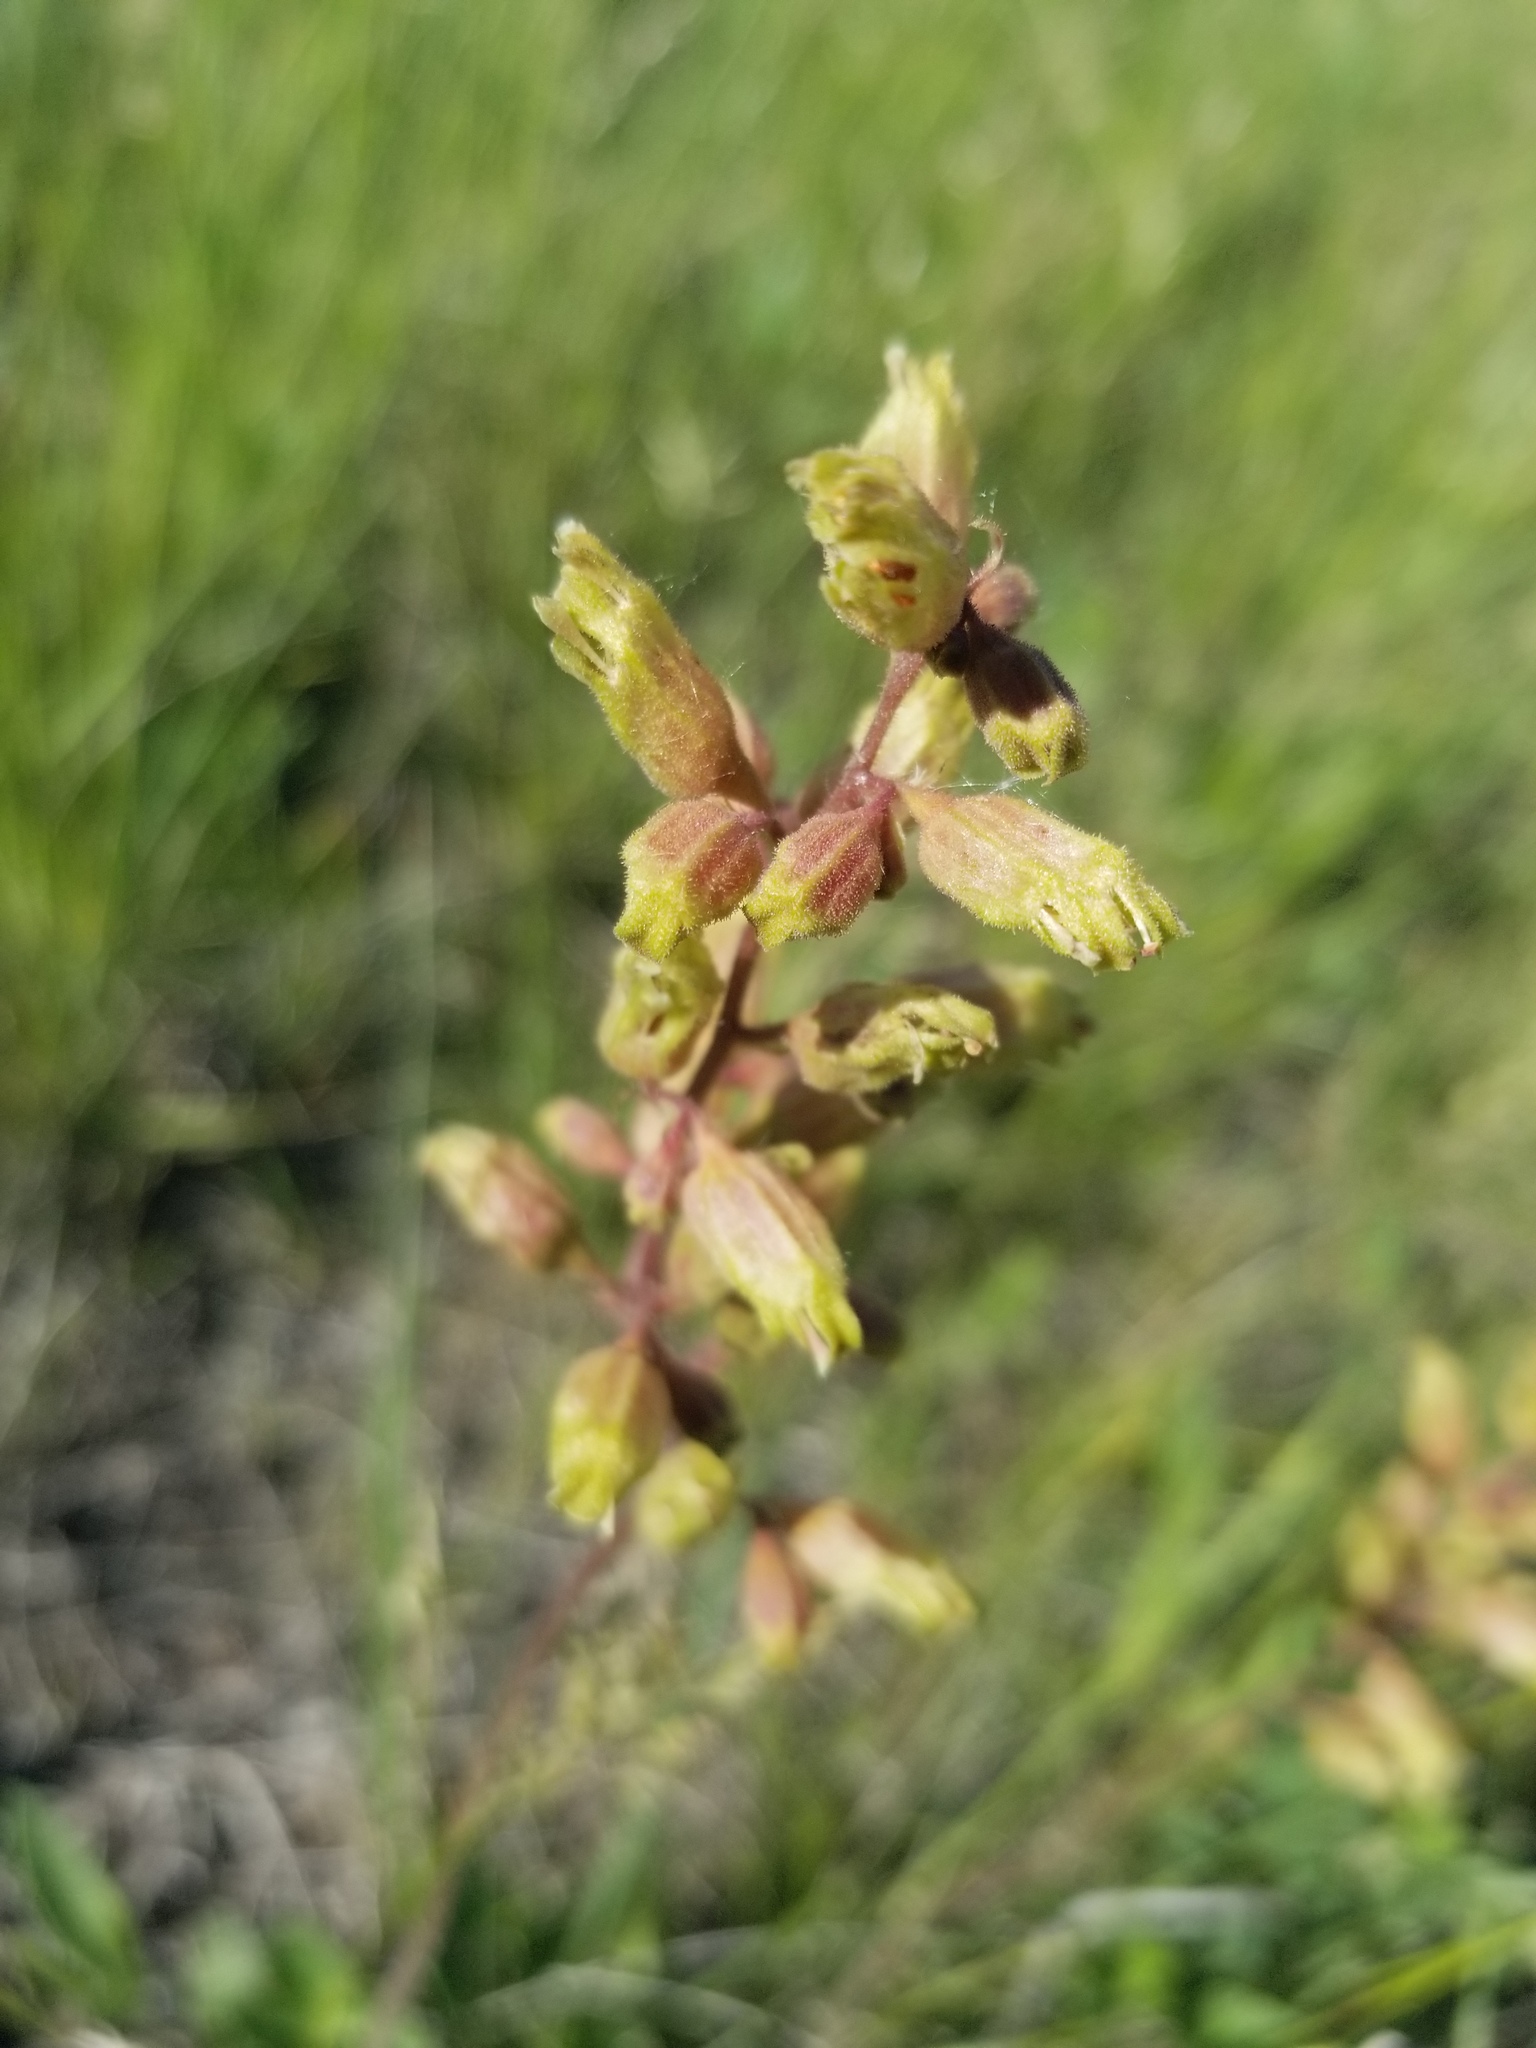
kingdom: Plantae
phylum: Tracheophyta
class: Magnoliopsida
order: Saxifragales
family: Saxifragaceae
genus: Heuchera
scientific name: Heuchera richardsonii
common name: Richardson's alumroot
